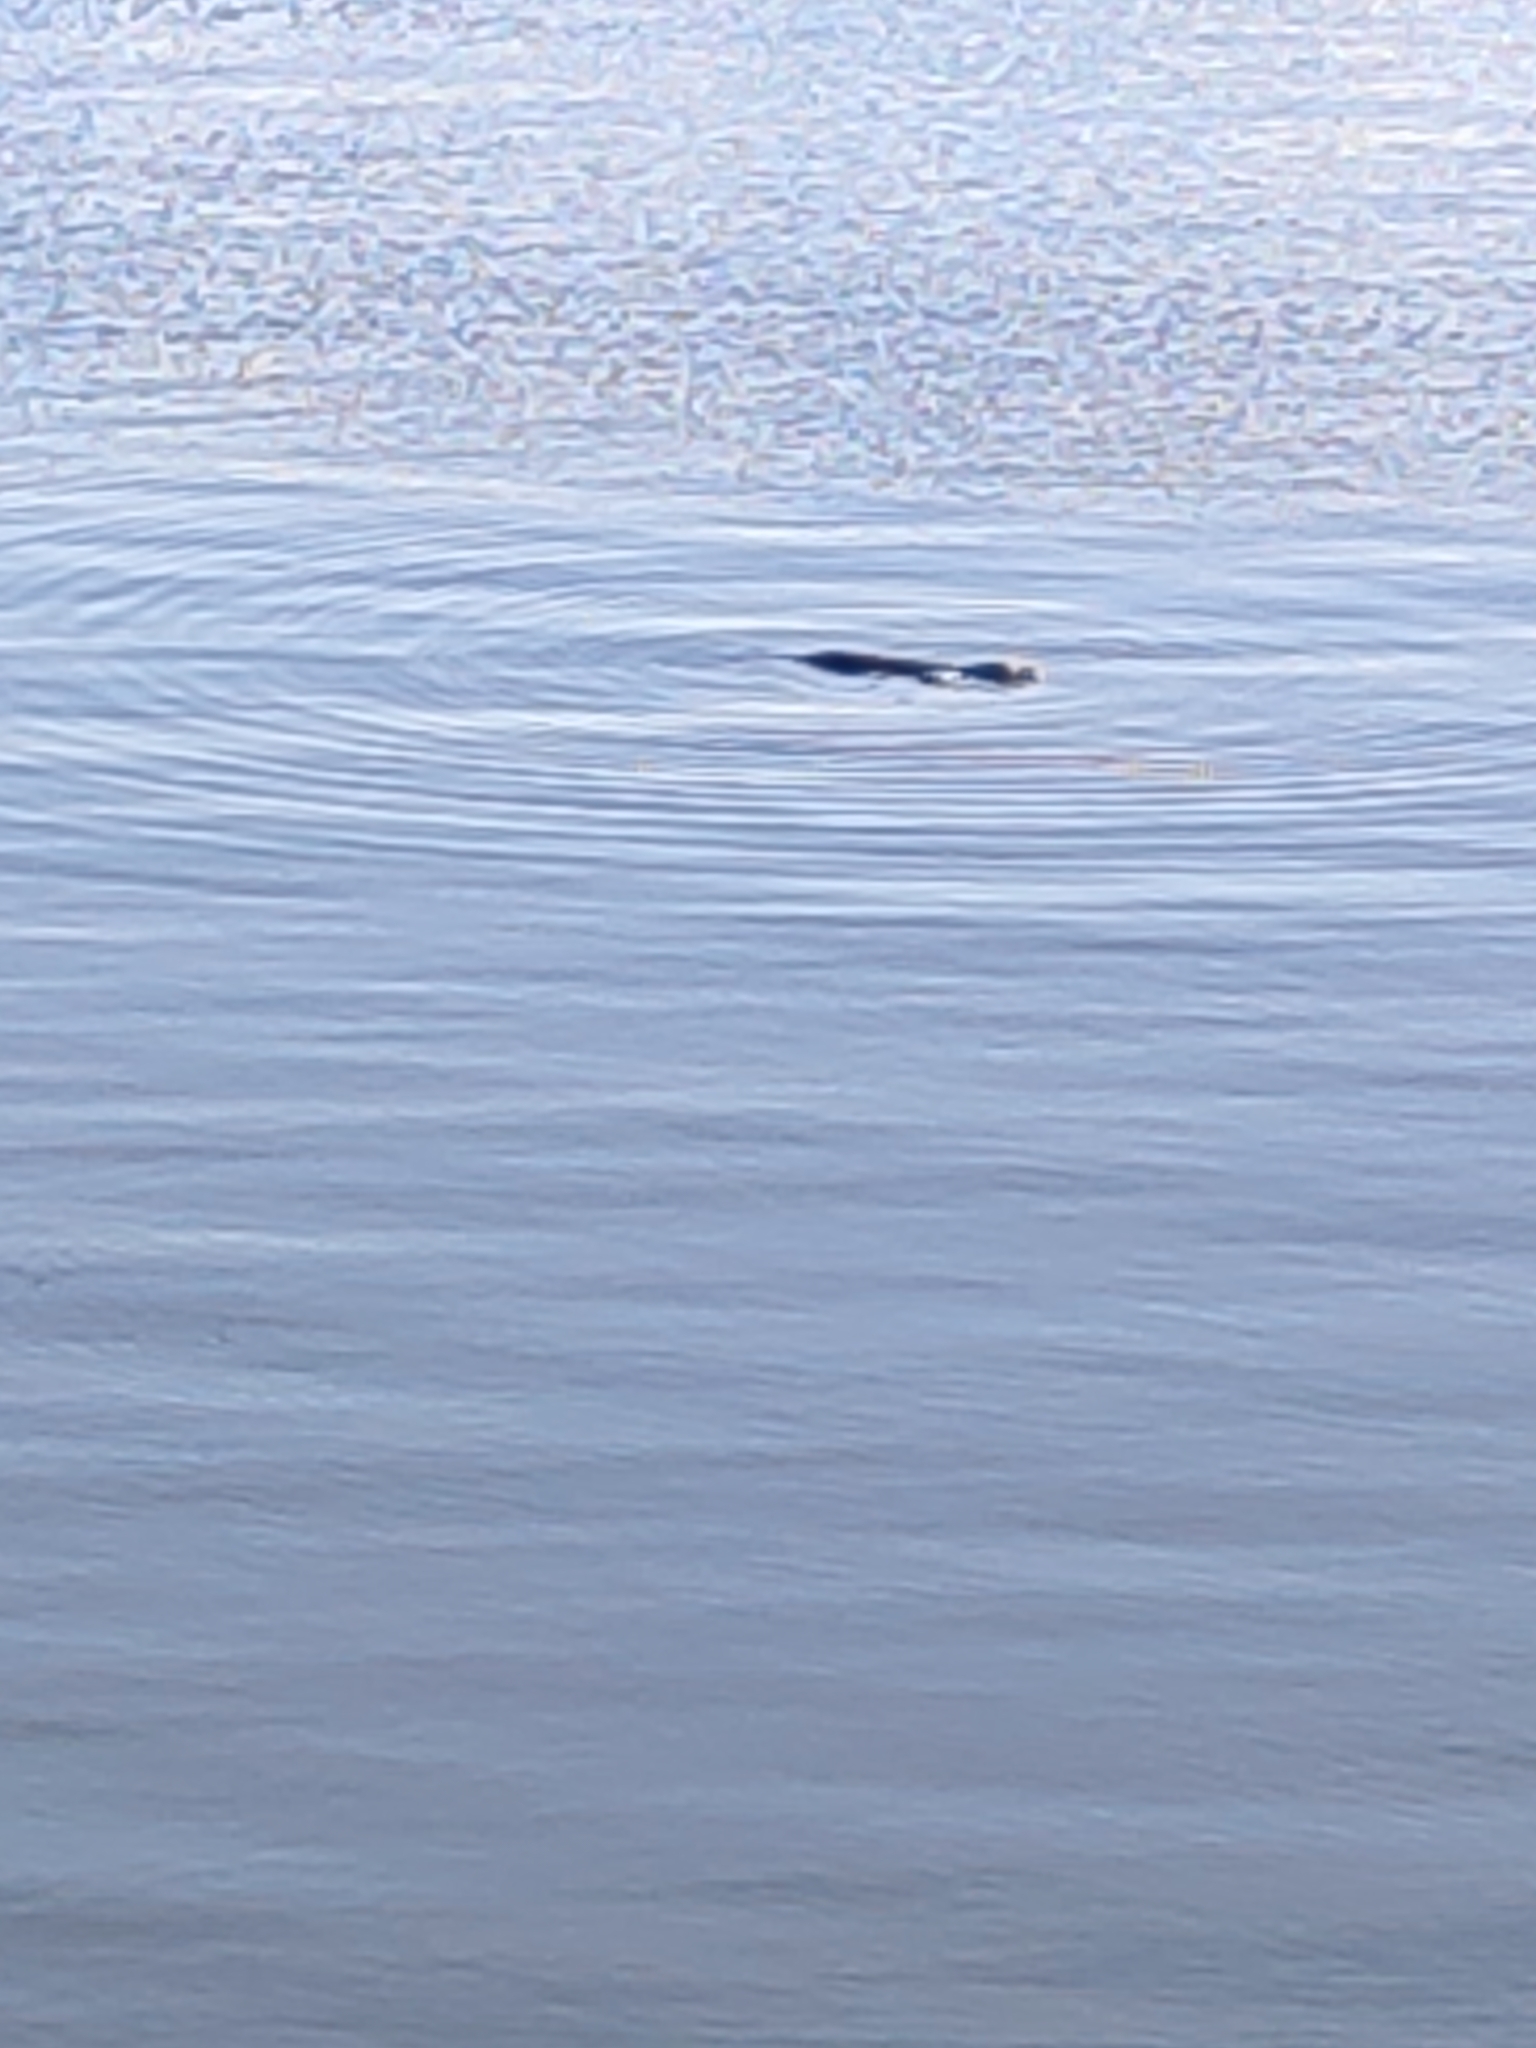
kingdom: Animalia
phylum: Chordata
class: Mammalia
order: Carnivora
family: Phocidae
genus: Phoca
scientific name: Phoca vitulina
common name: Harbor seal
